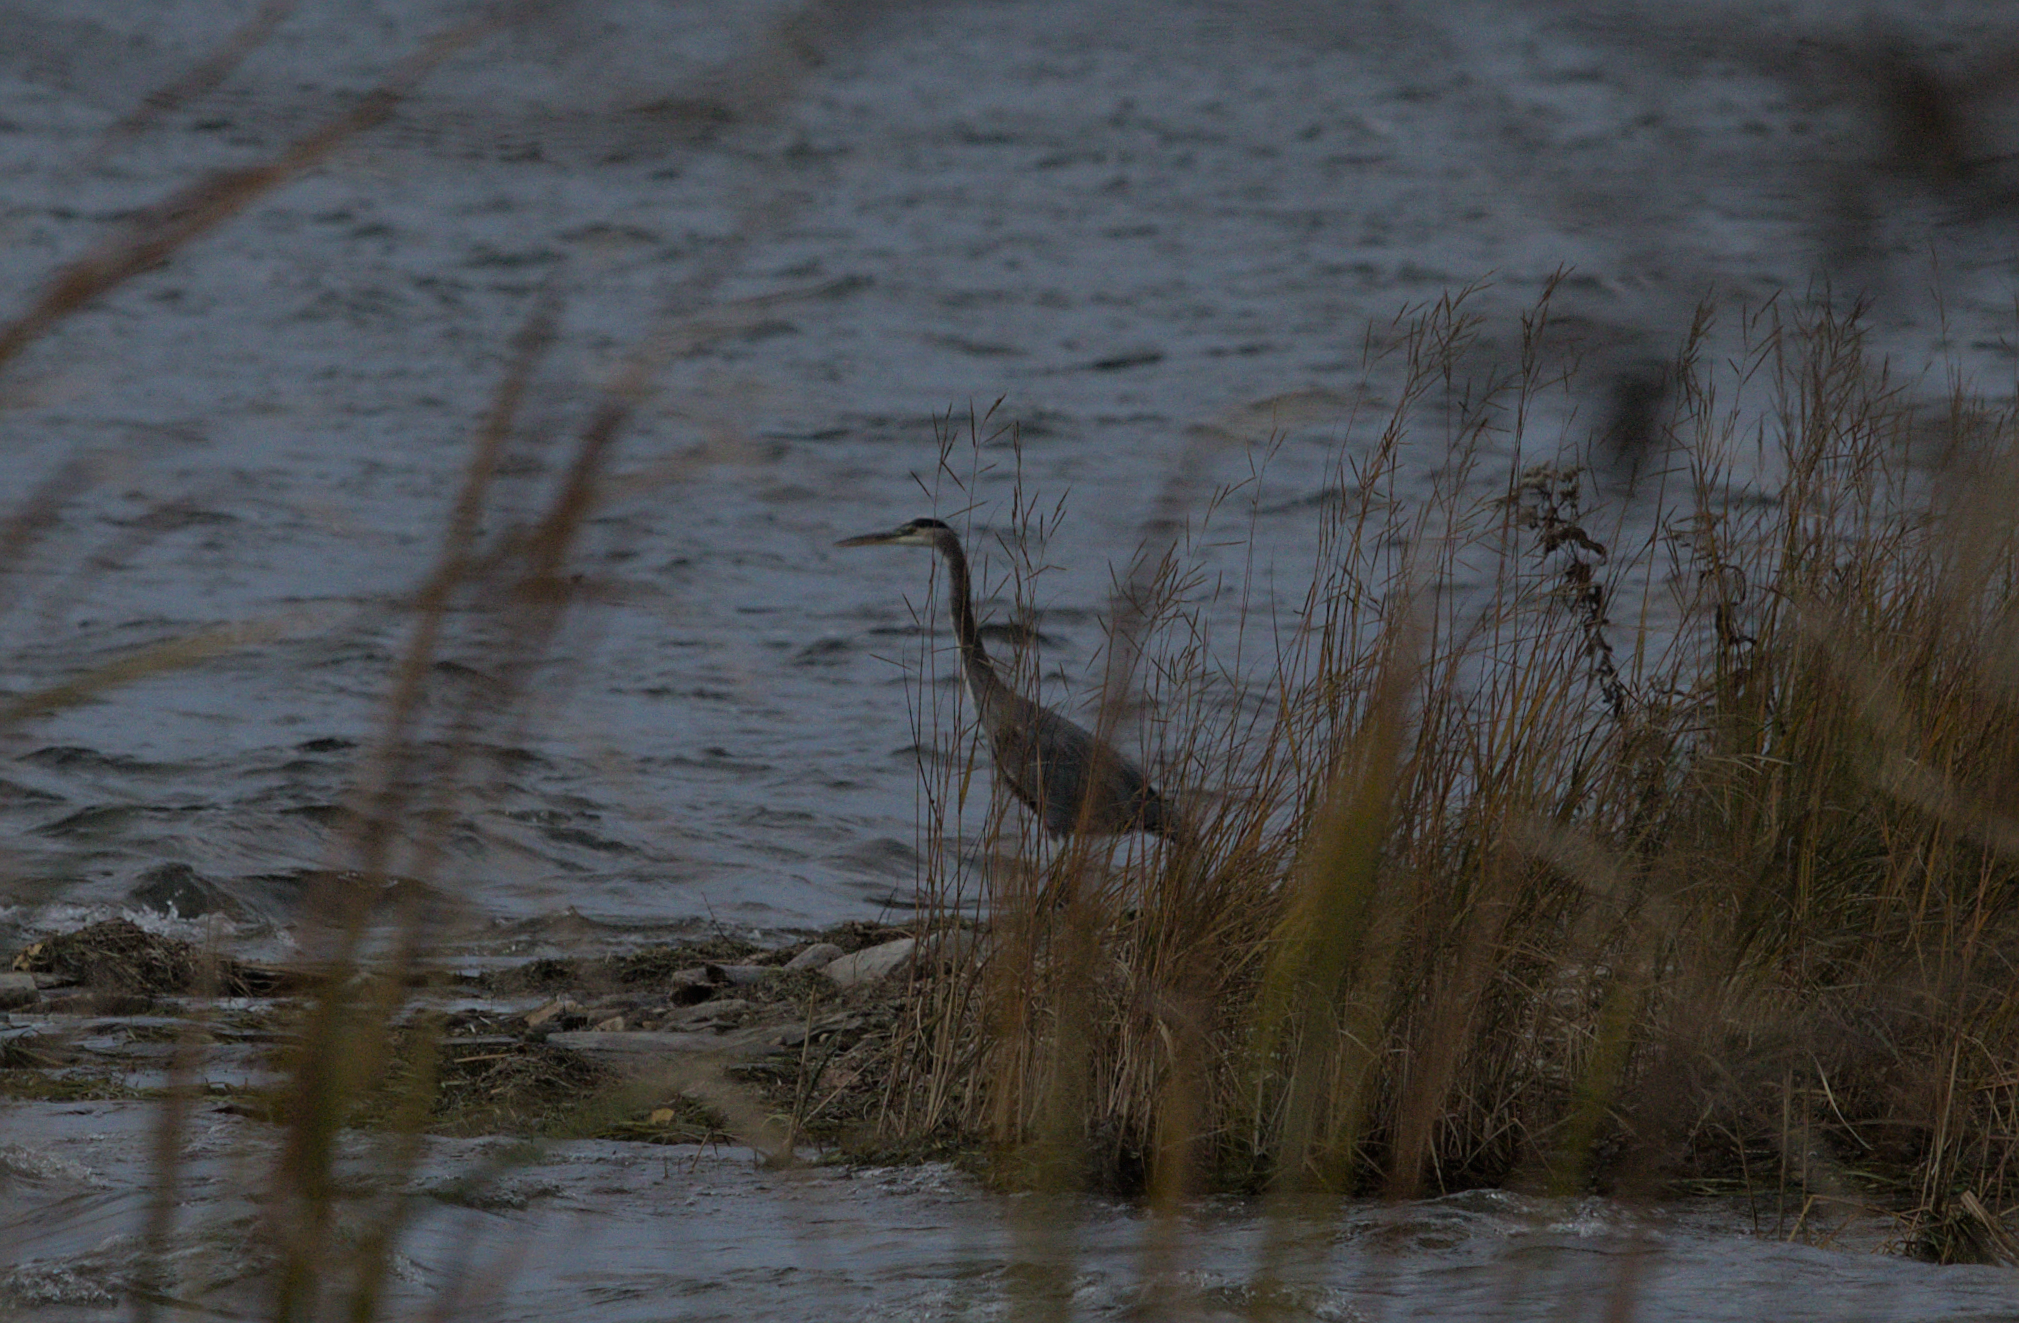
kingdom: Animalia
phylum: Chordata
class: Aves
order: Pelecaniformes
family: Ardeidae
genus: Ardea
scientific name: Ardea herodias
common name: Great blue heron
